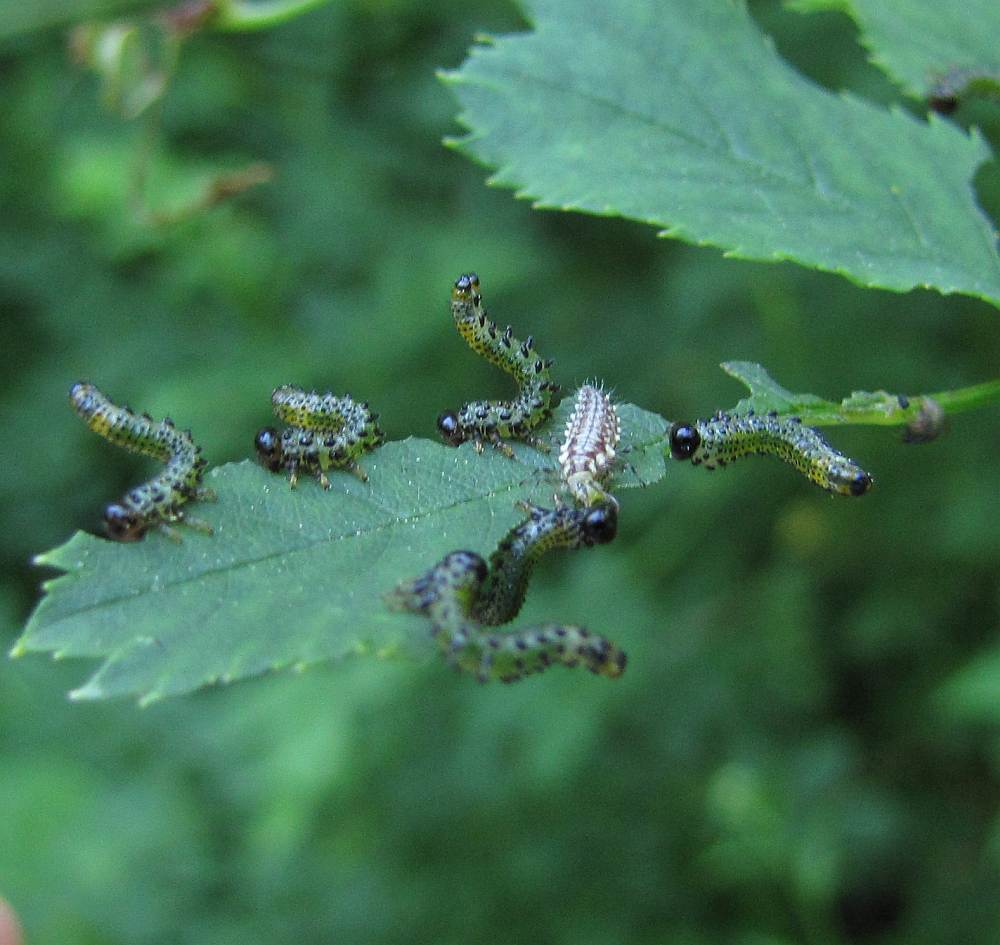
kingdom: Animalia
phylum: Arthropoda
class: Insecta
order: Hymenoptera
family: Argidae
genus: Arge
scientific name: Arge ochropus
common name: Argid sawfly
